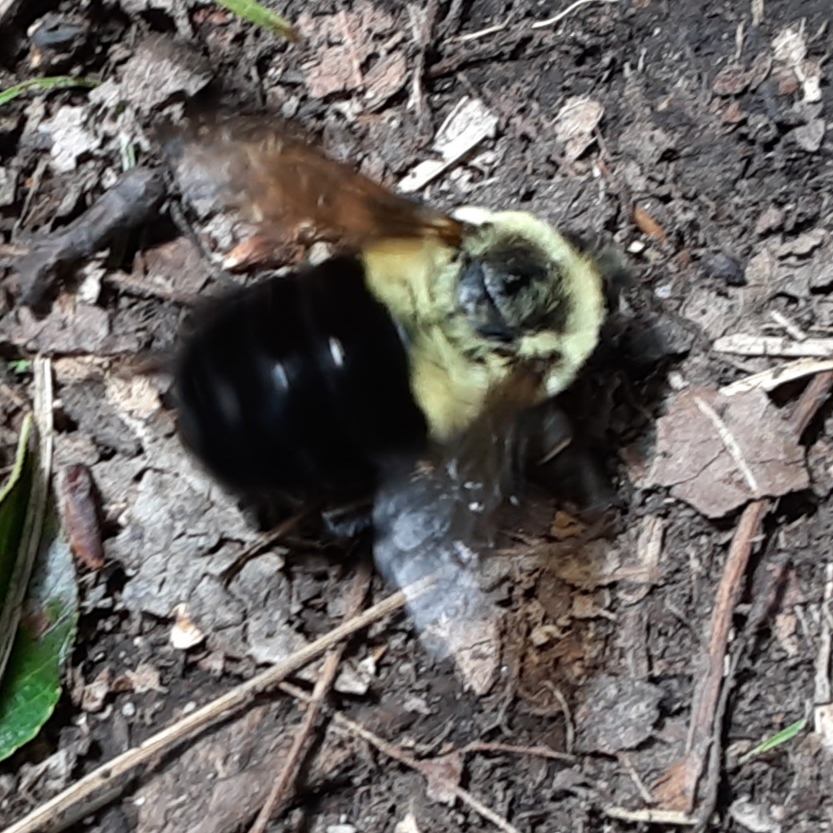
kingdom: Animalia
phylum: Arthropoda
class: Insecta
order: Hymenoptera
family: Apidae
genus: Bombus
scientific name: Bombus impatiens
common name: Common eastern bumble bee
